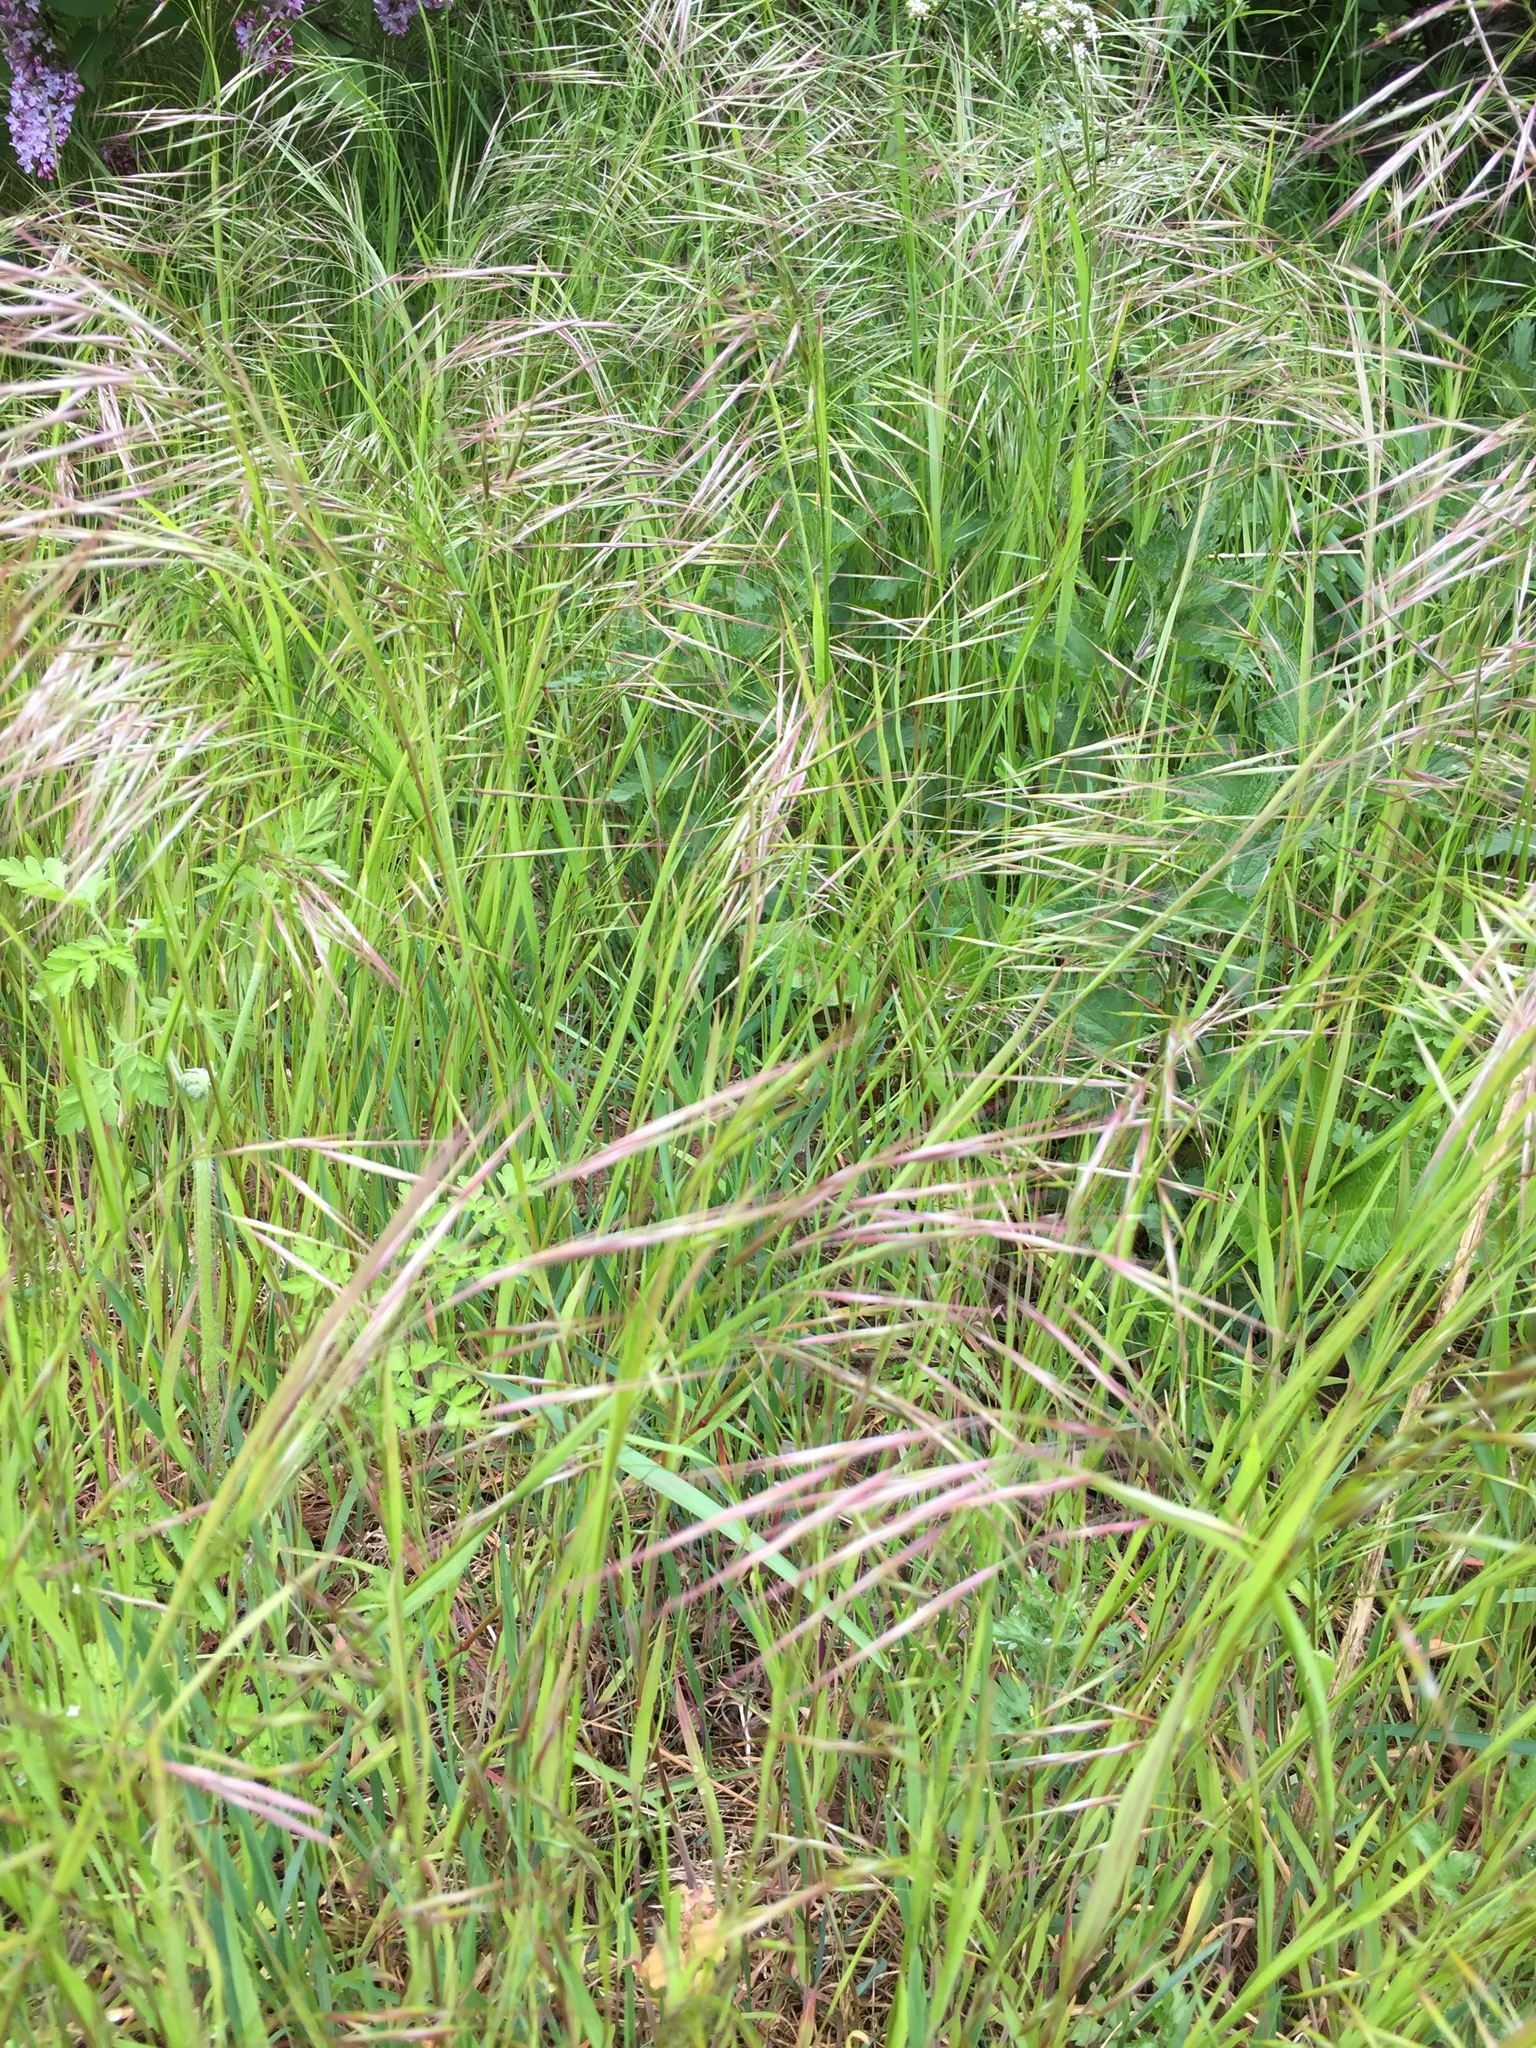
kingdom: Plantae
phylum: Tracheophyta
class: Liliopsida
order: Poales
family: Poaceae
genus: Bromus
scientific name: Bromus sterilis
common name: Poverty brome
